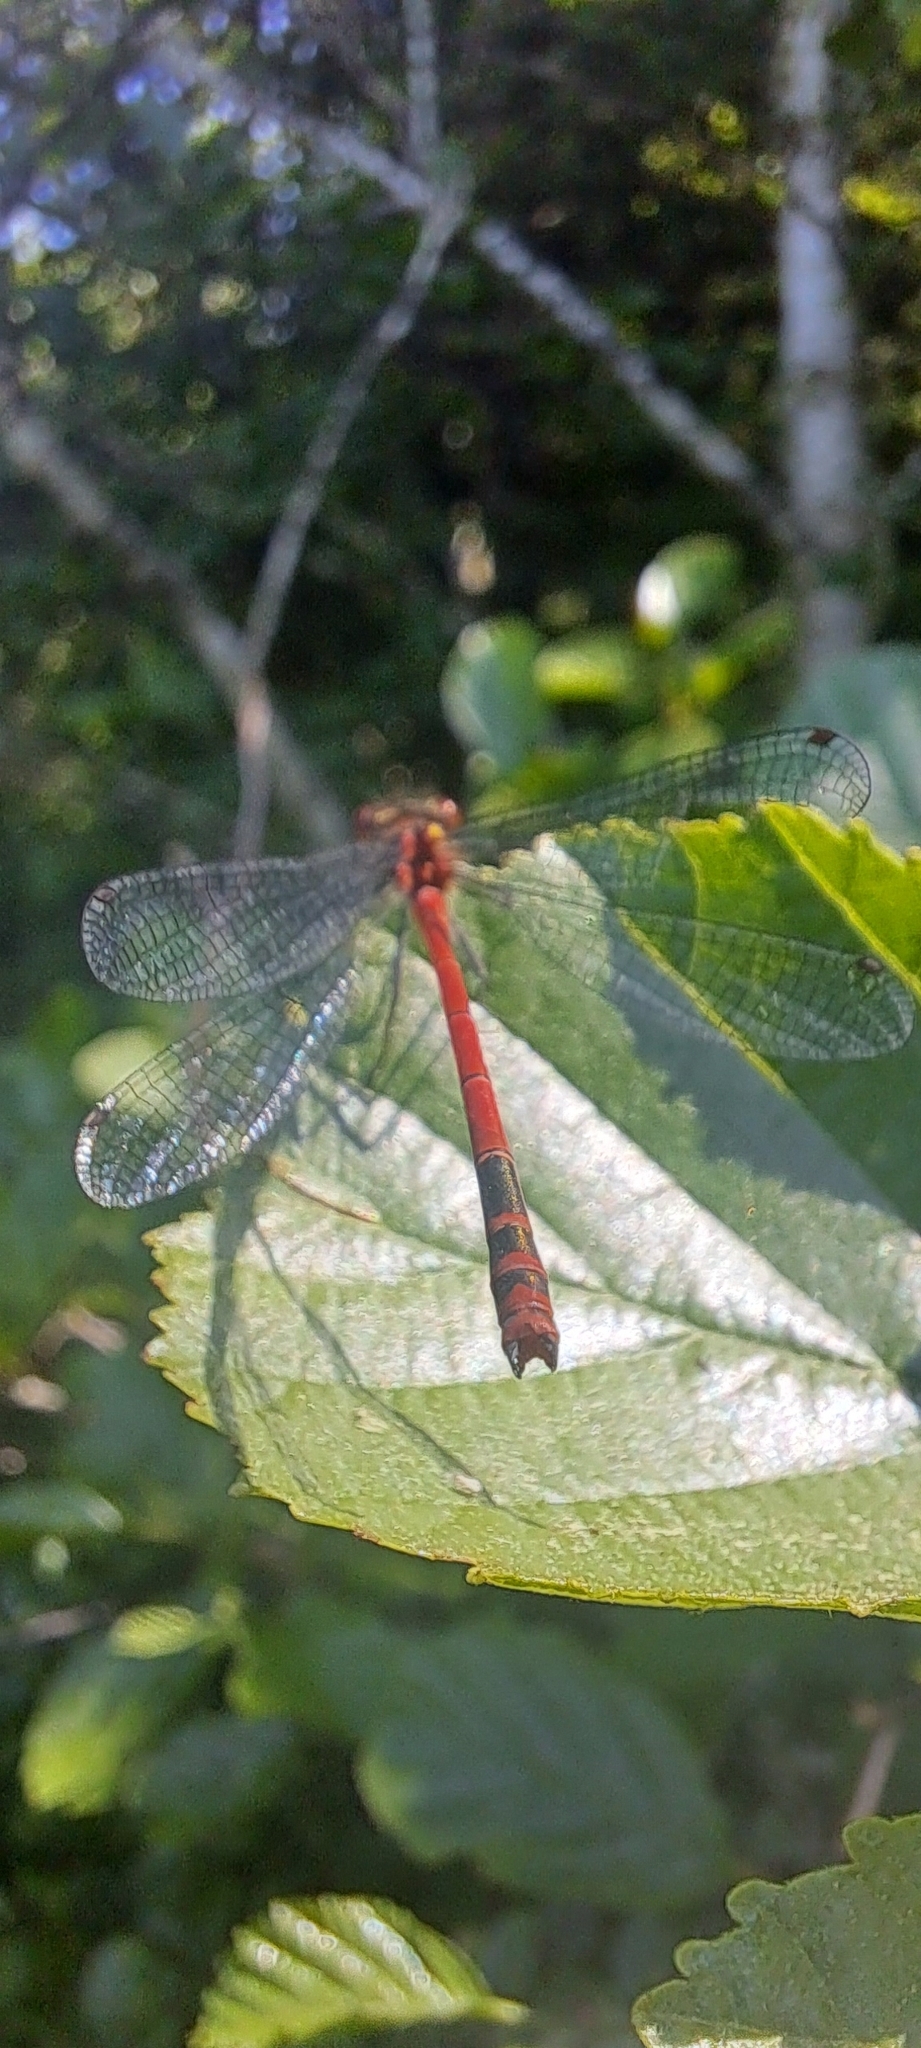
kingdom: Animalia
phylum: Arthropoda
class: Insecta
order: Odonata
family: Coenagrionidae
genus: Pyrrhosoma
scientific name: Pyrrhosoma nymphula
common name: Large red damsel
